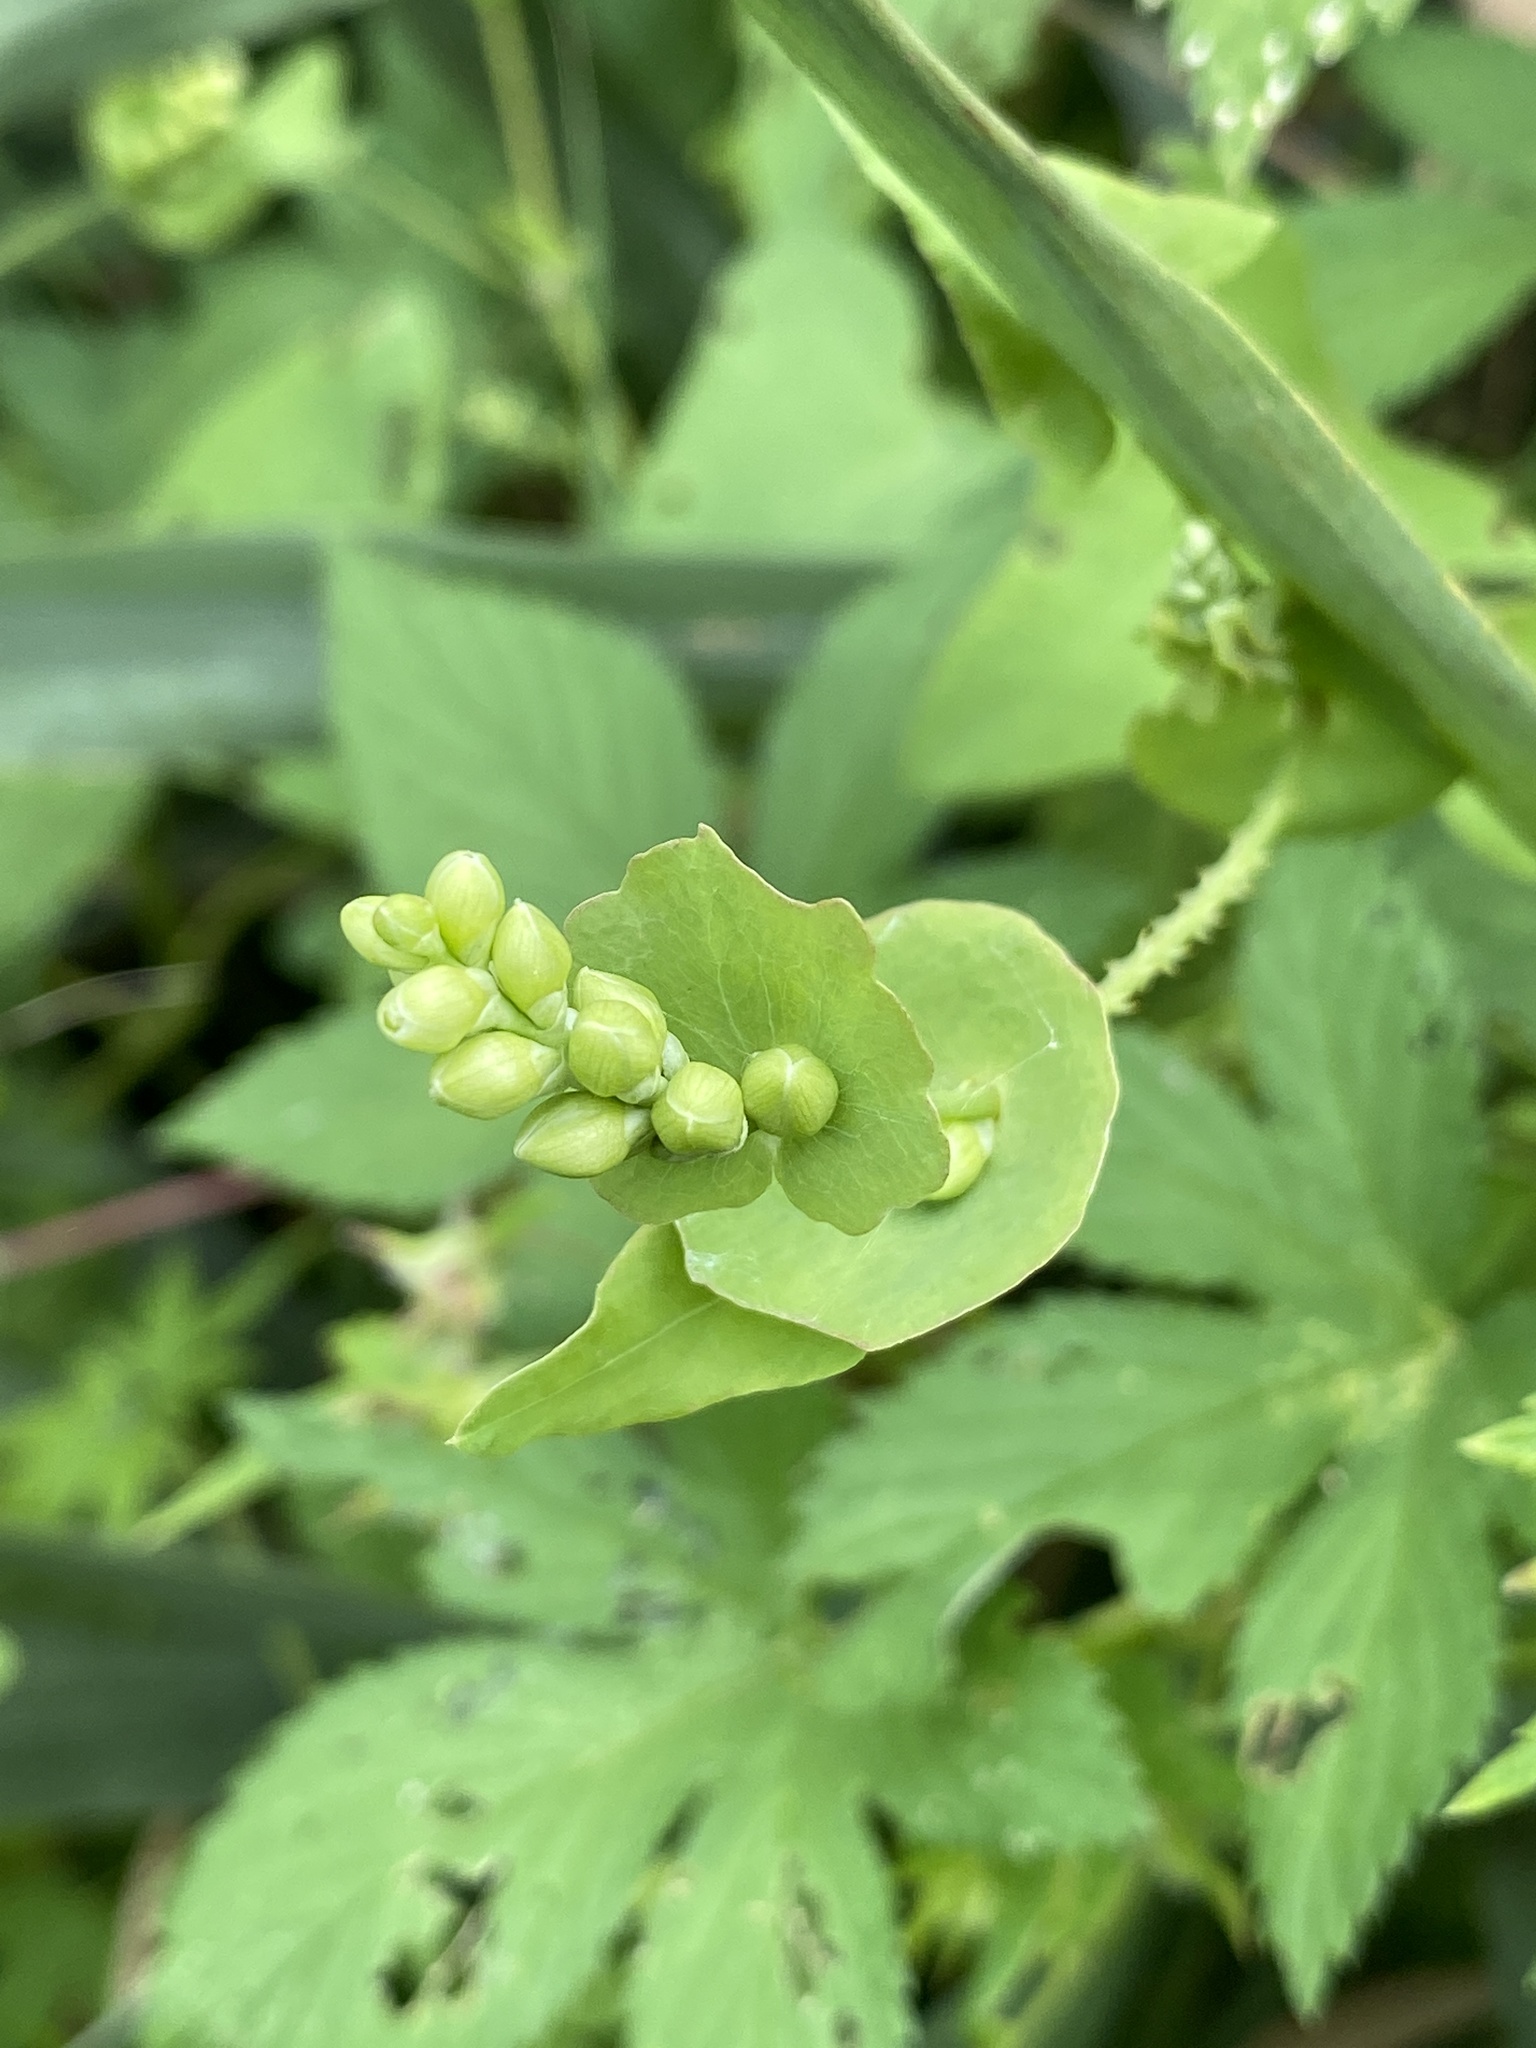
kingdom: Plantae
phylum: Tracheophyta
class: Magnoliopsida
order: Caryophyllales
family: Polygonaceae
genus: Persicaria
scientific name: Persicaria perfoliata
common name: Asiatic tearthumb
